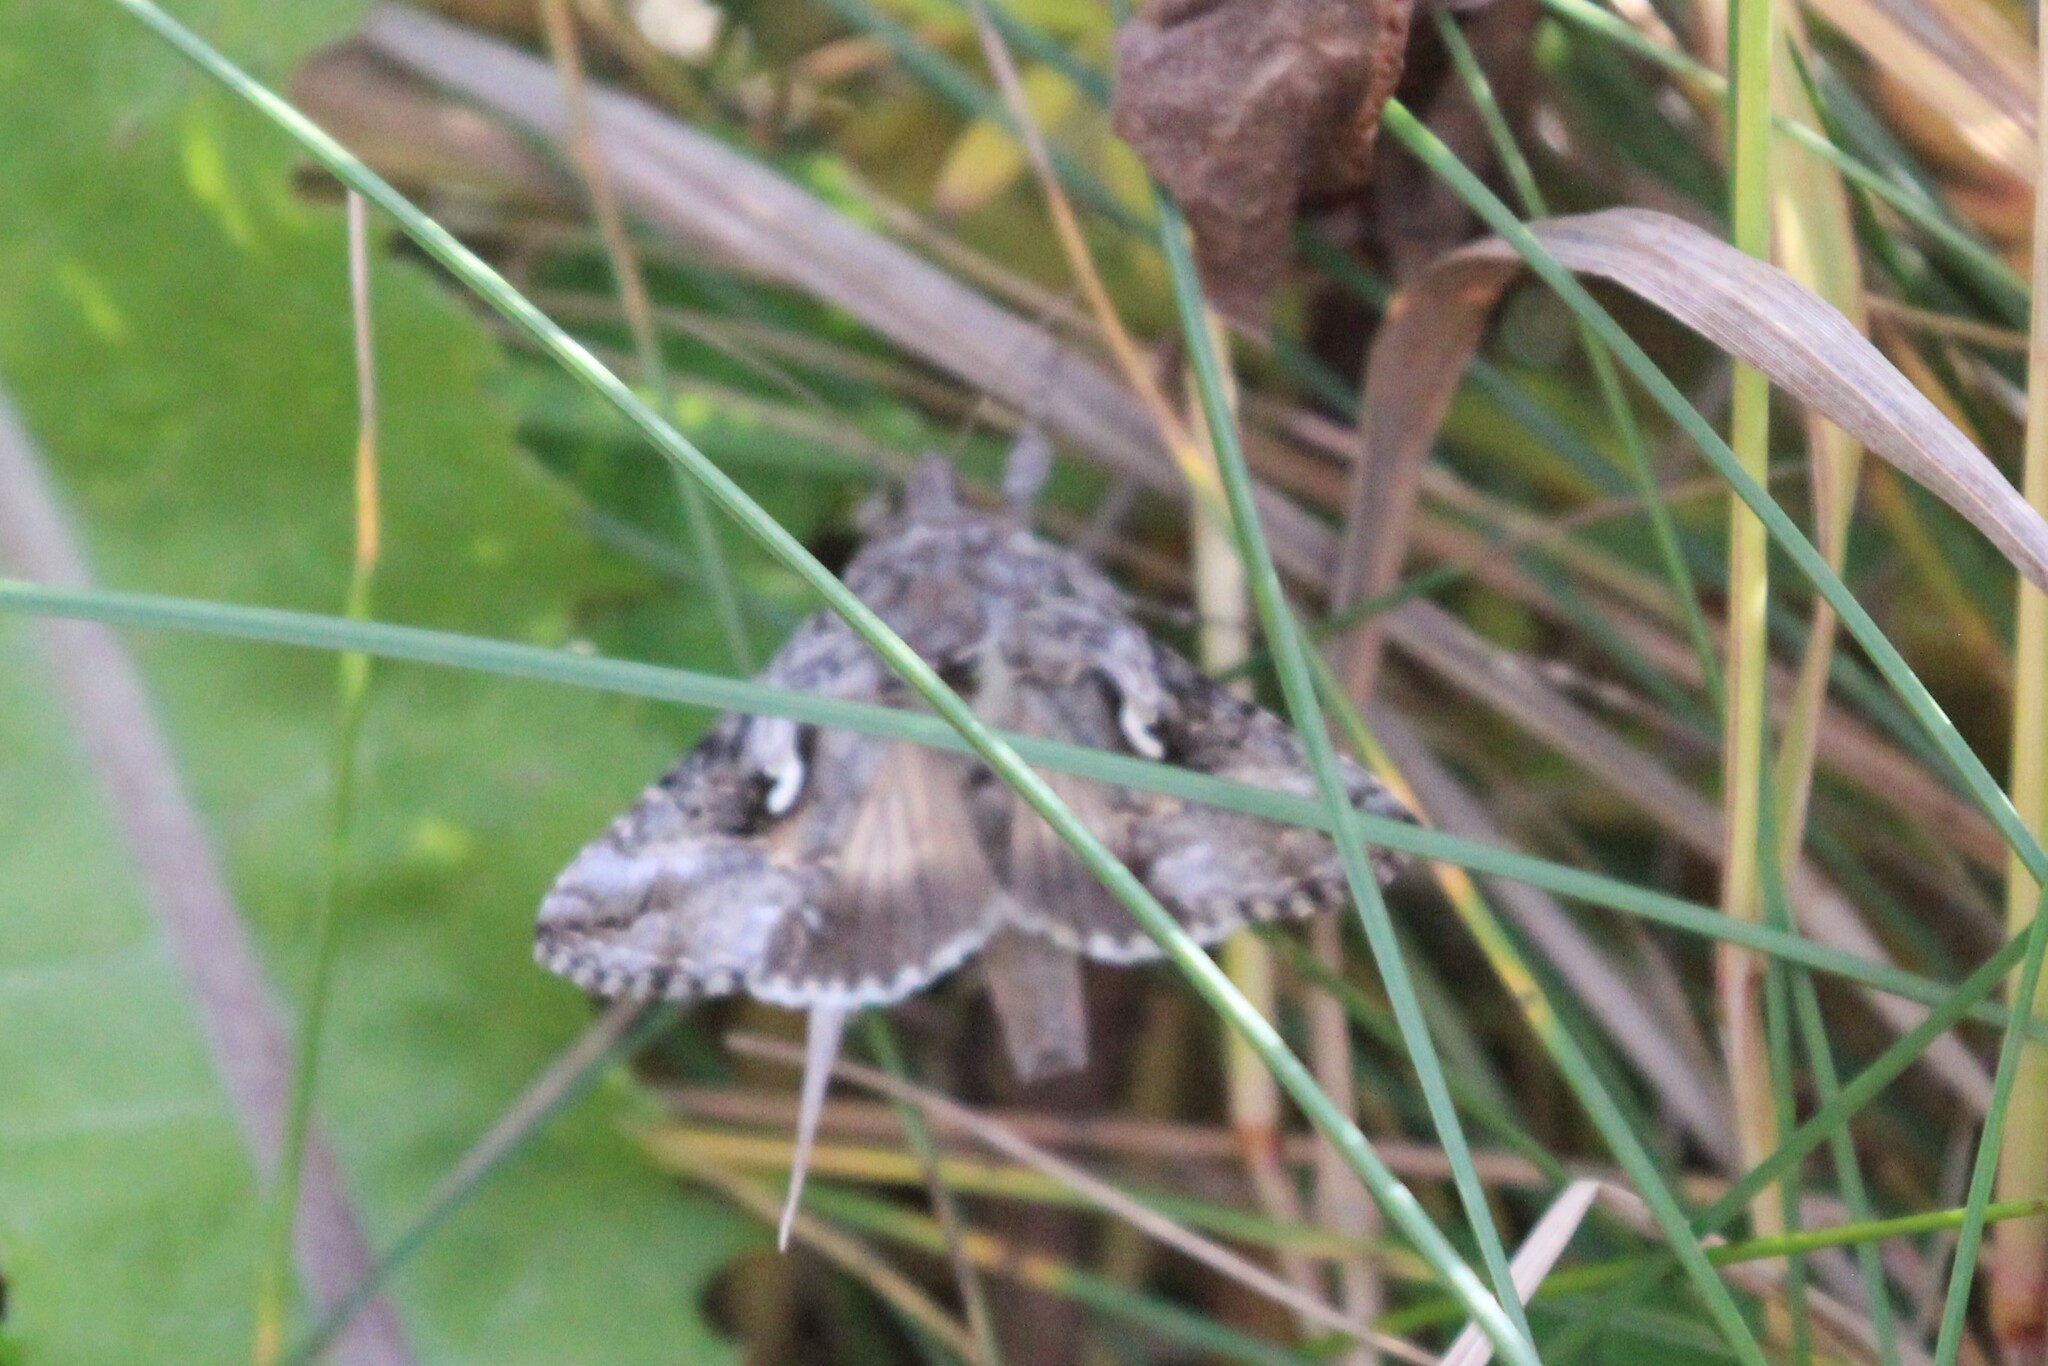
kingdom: Animalia
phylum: Arthropoda
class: Insecta
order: Lepidoptera
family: Noctuidae
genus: Autographa
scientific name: Autographa californica
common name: Alfalfa looper
